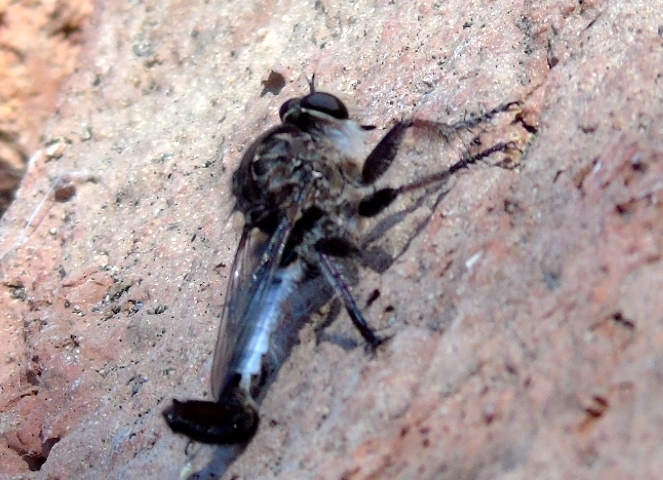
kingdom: Animalia
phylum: Arthropoda
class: Insecta
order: Diptera
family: Asilidae
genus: Efferia
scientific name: Efferia
